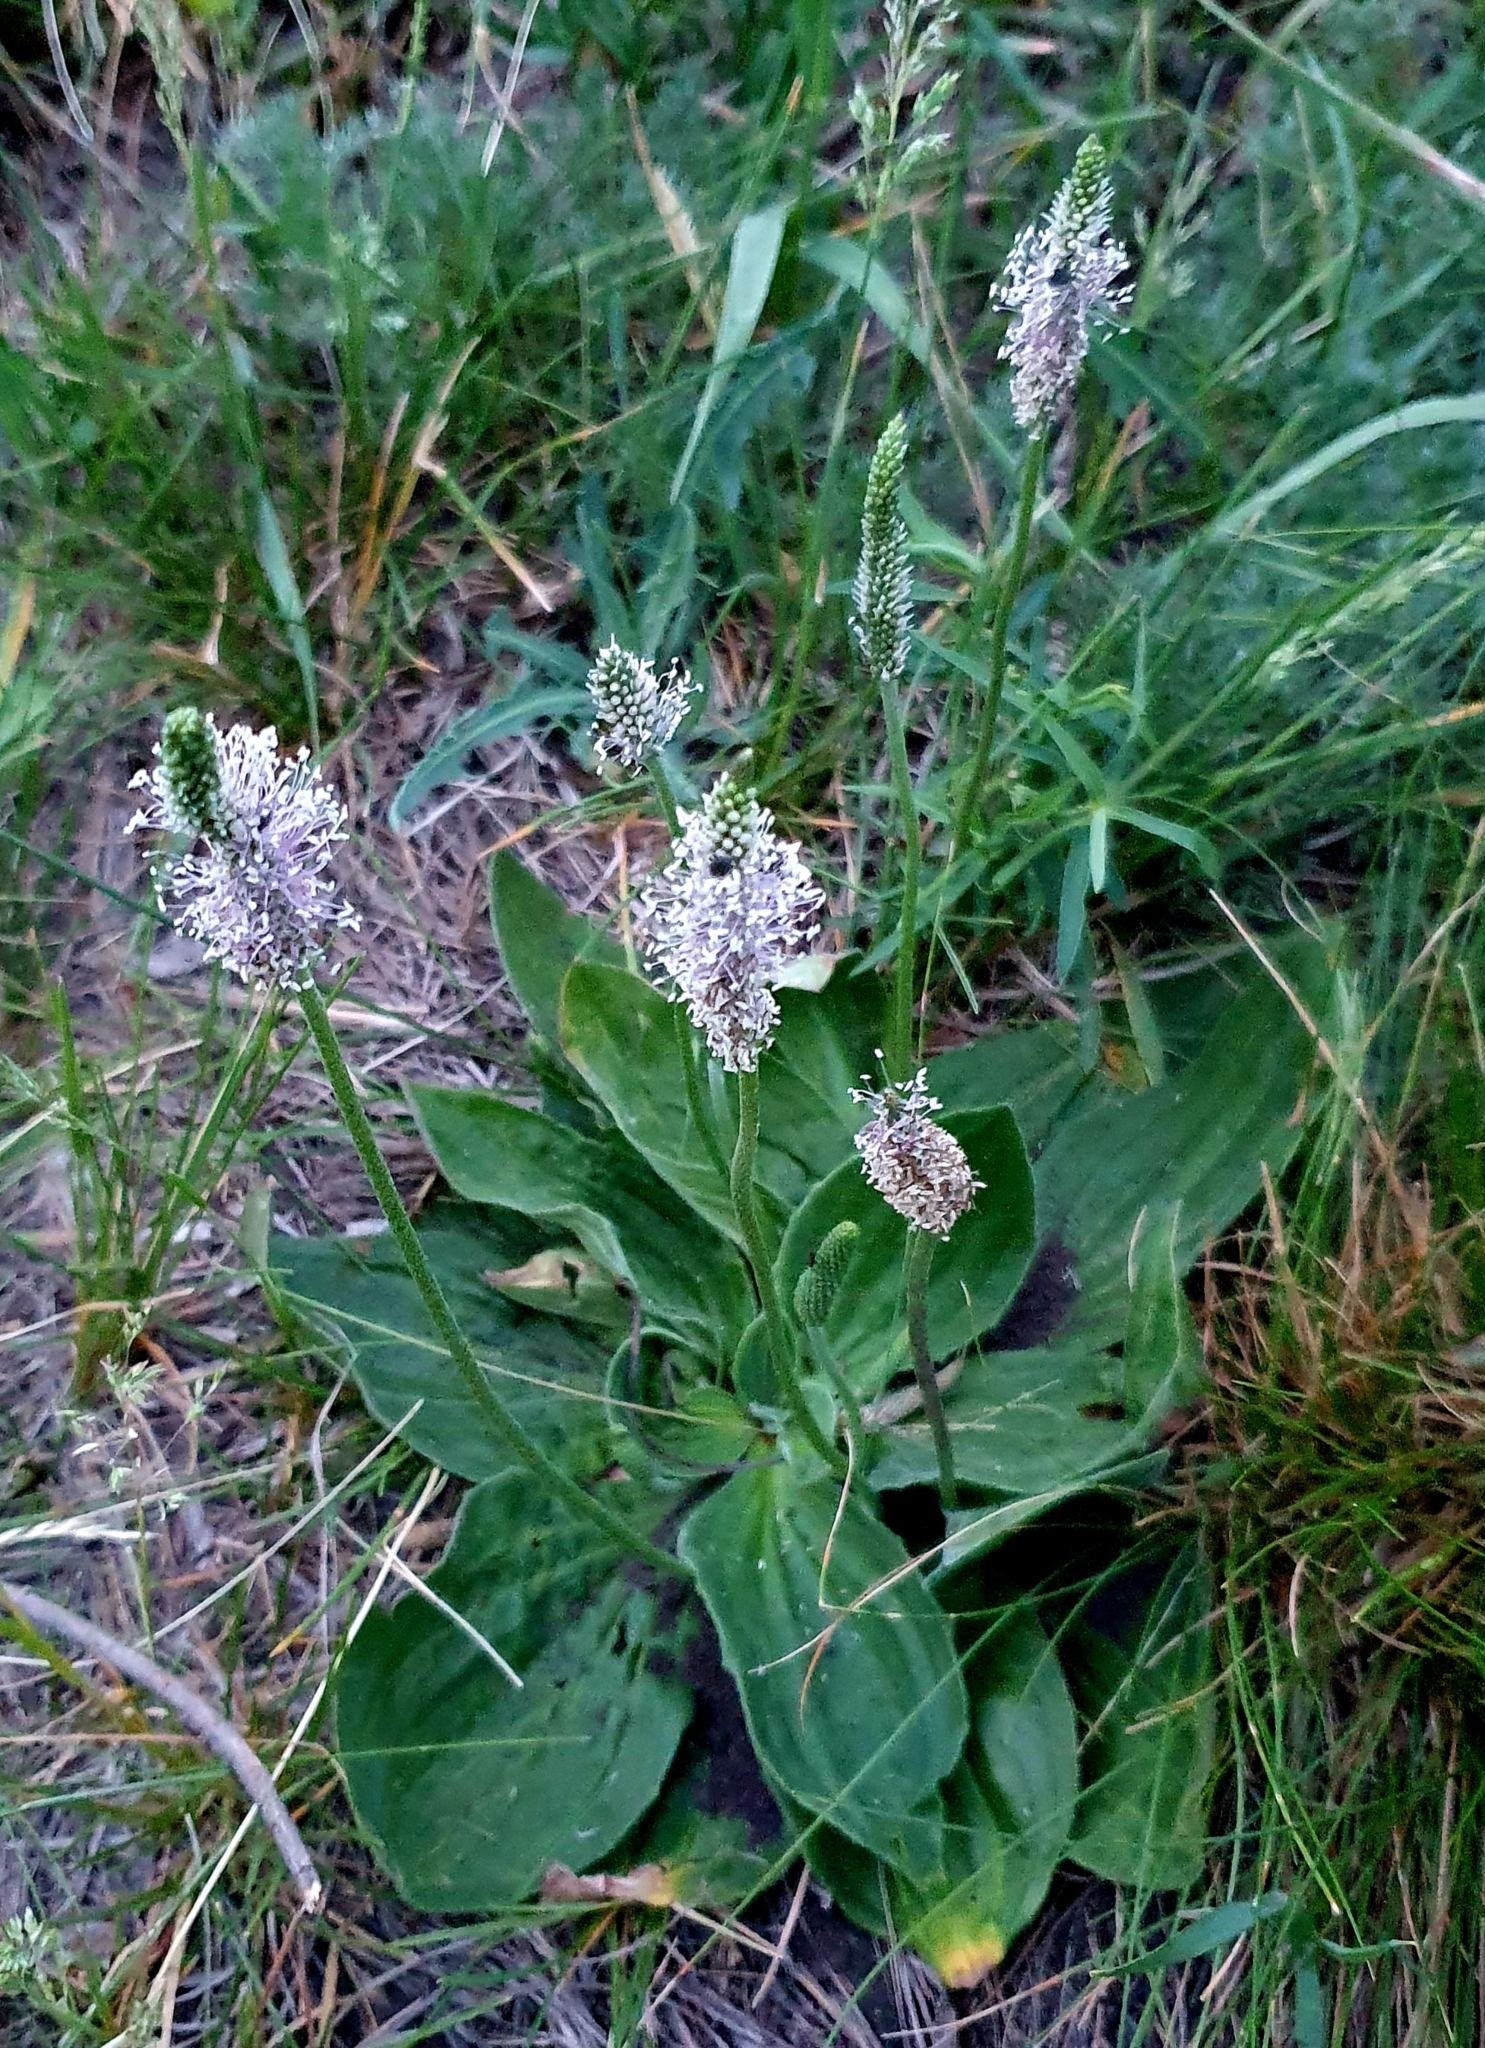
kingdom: Plantae
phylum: Tracheophyta
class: Magnoliopsida
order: Lamiales
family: Plantaginaceae
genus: Plantago
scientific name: Plantago media
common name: Hoary plantain
